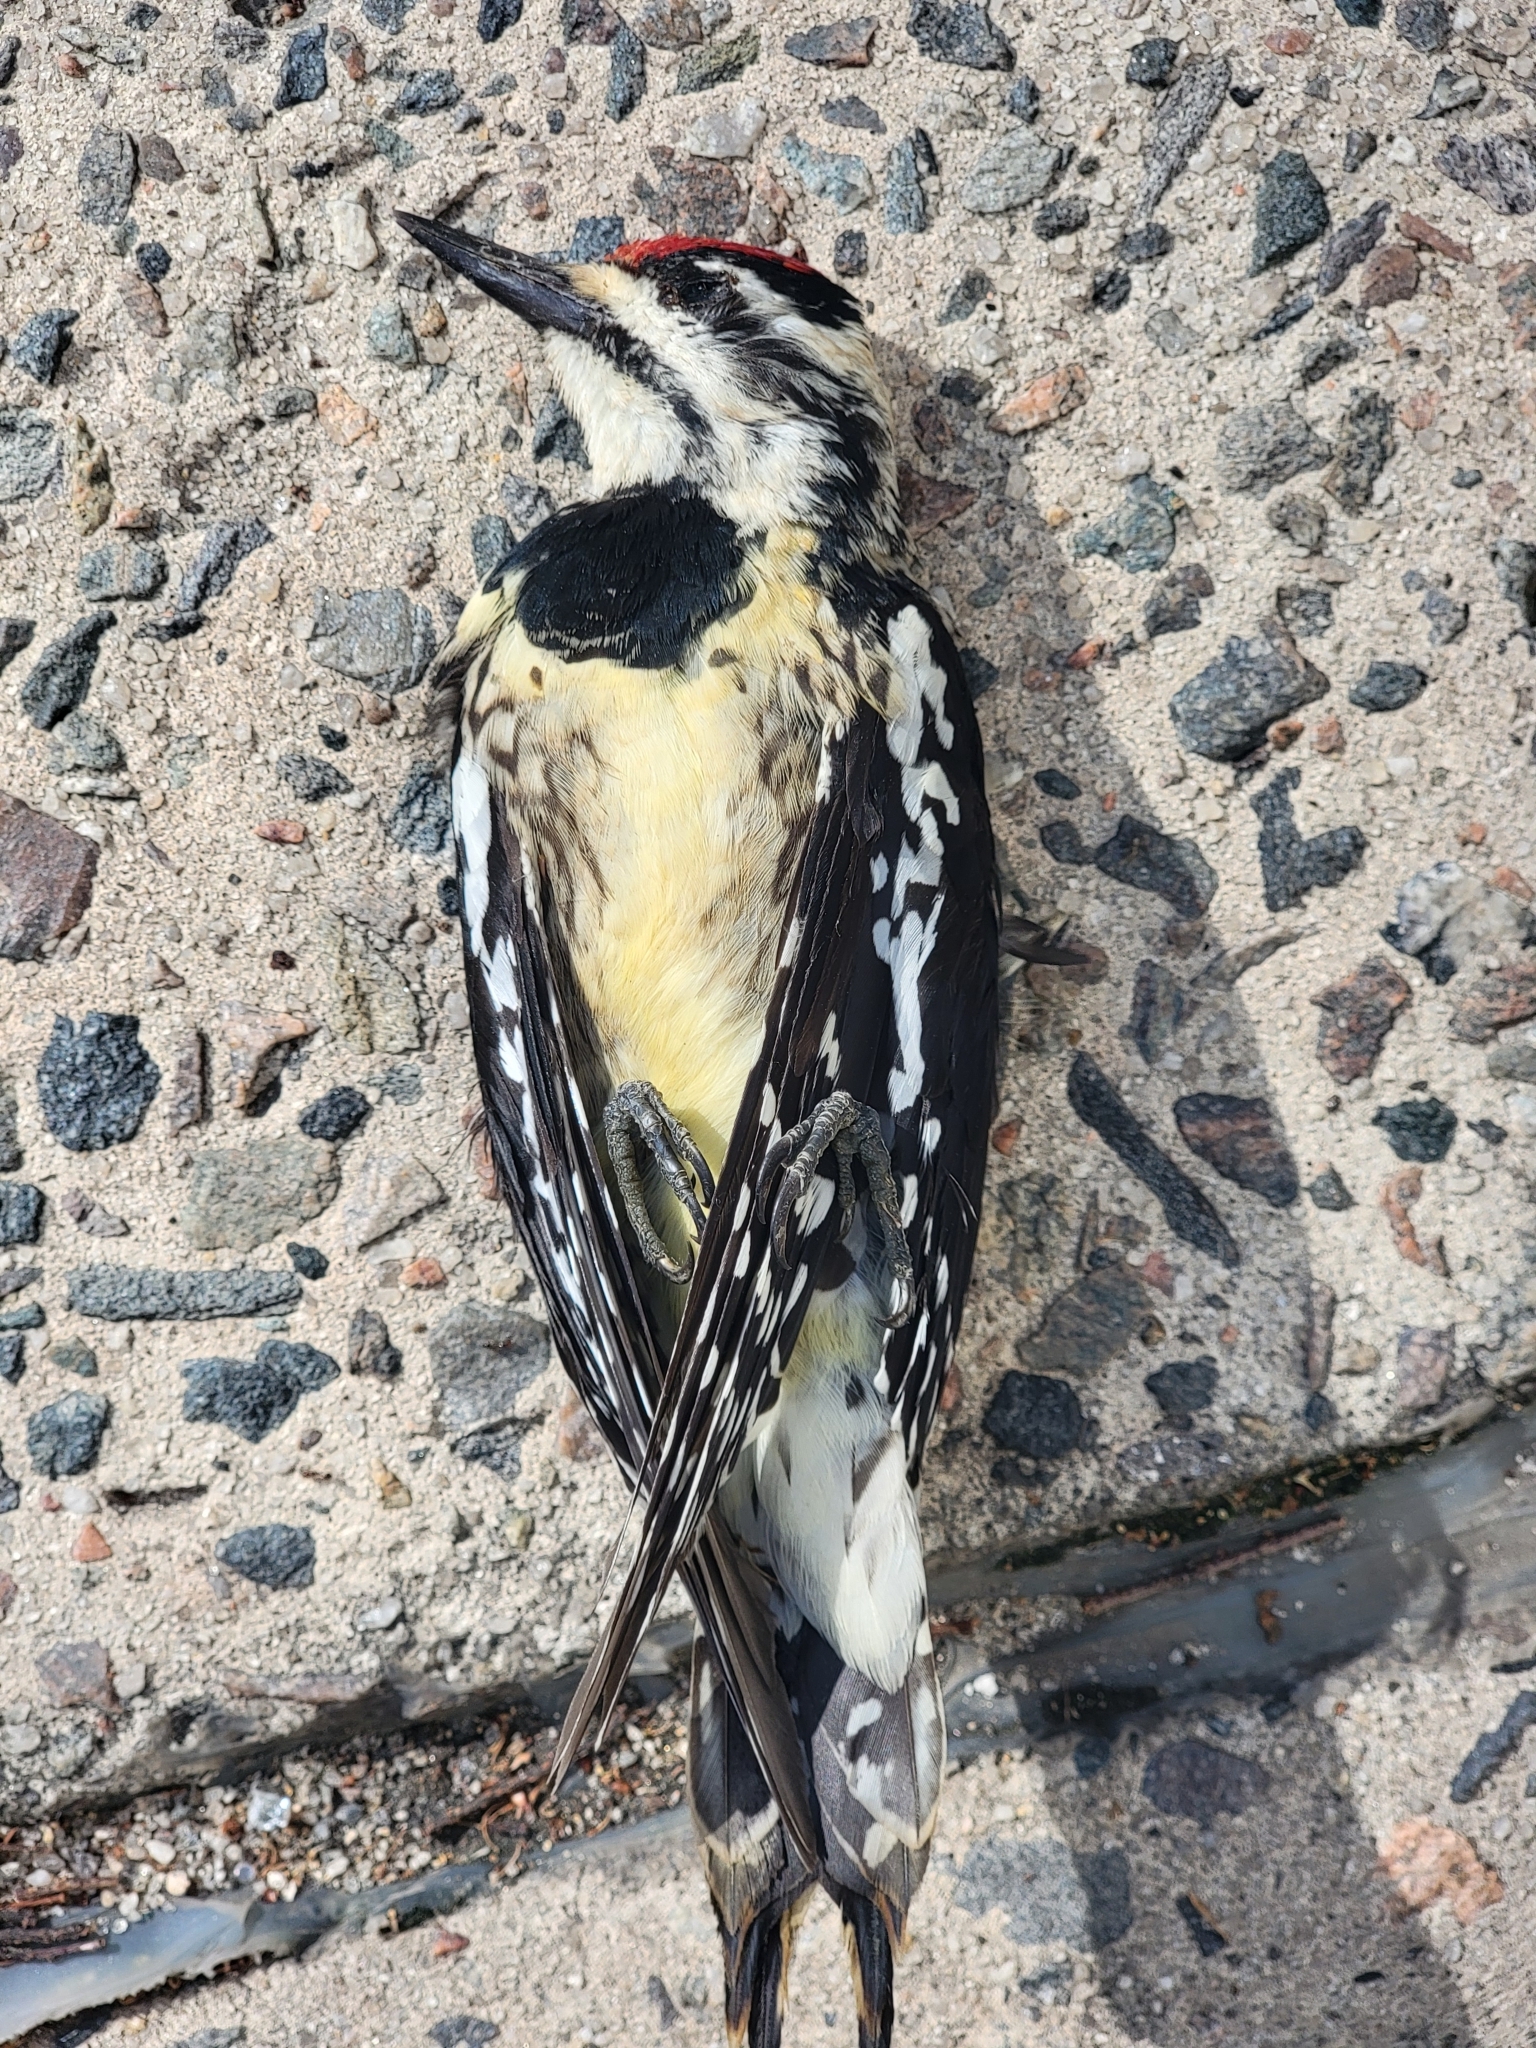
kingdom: Animalia
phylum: Chordata
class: Aves
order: Piciformes
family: Picidae
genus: Sphyrapicus
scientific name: Sphyrapicus varius
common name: Yellow-bellied sapsucker
